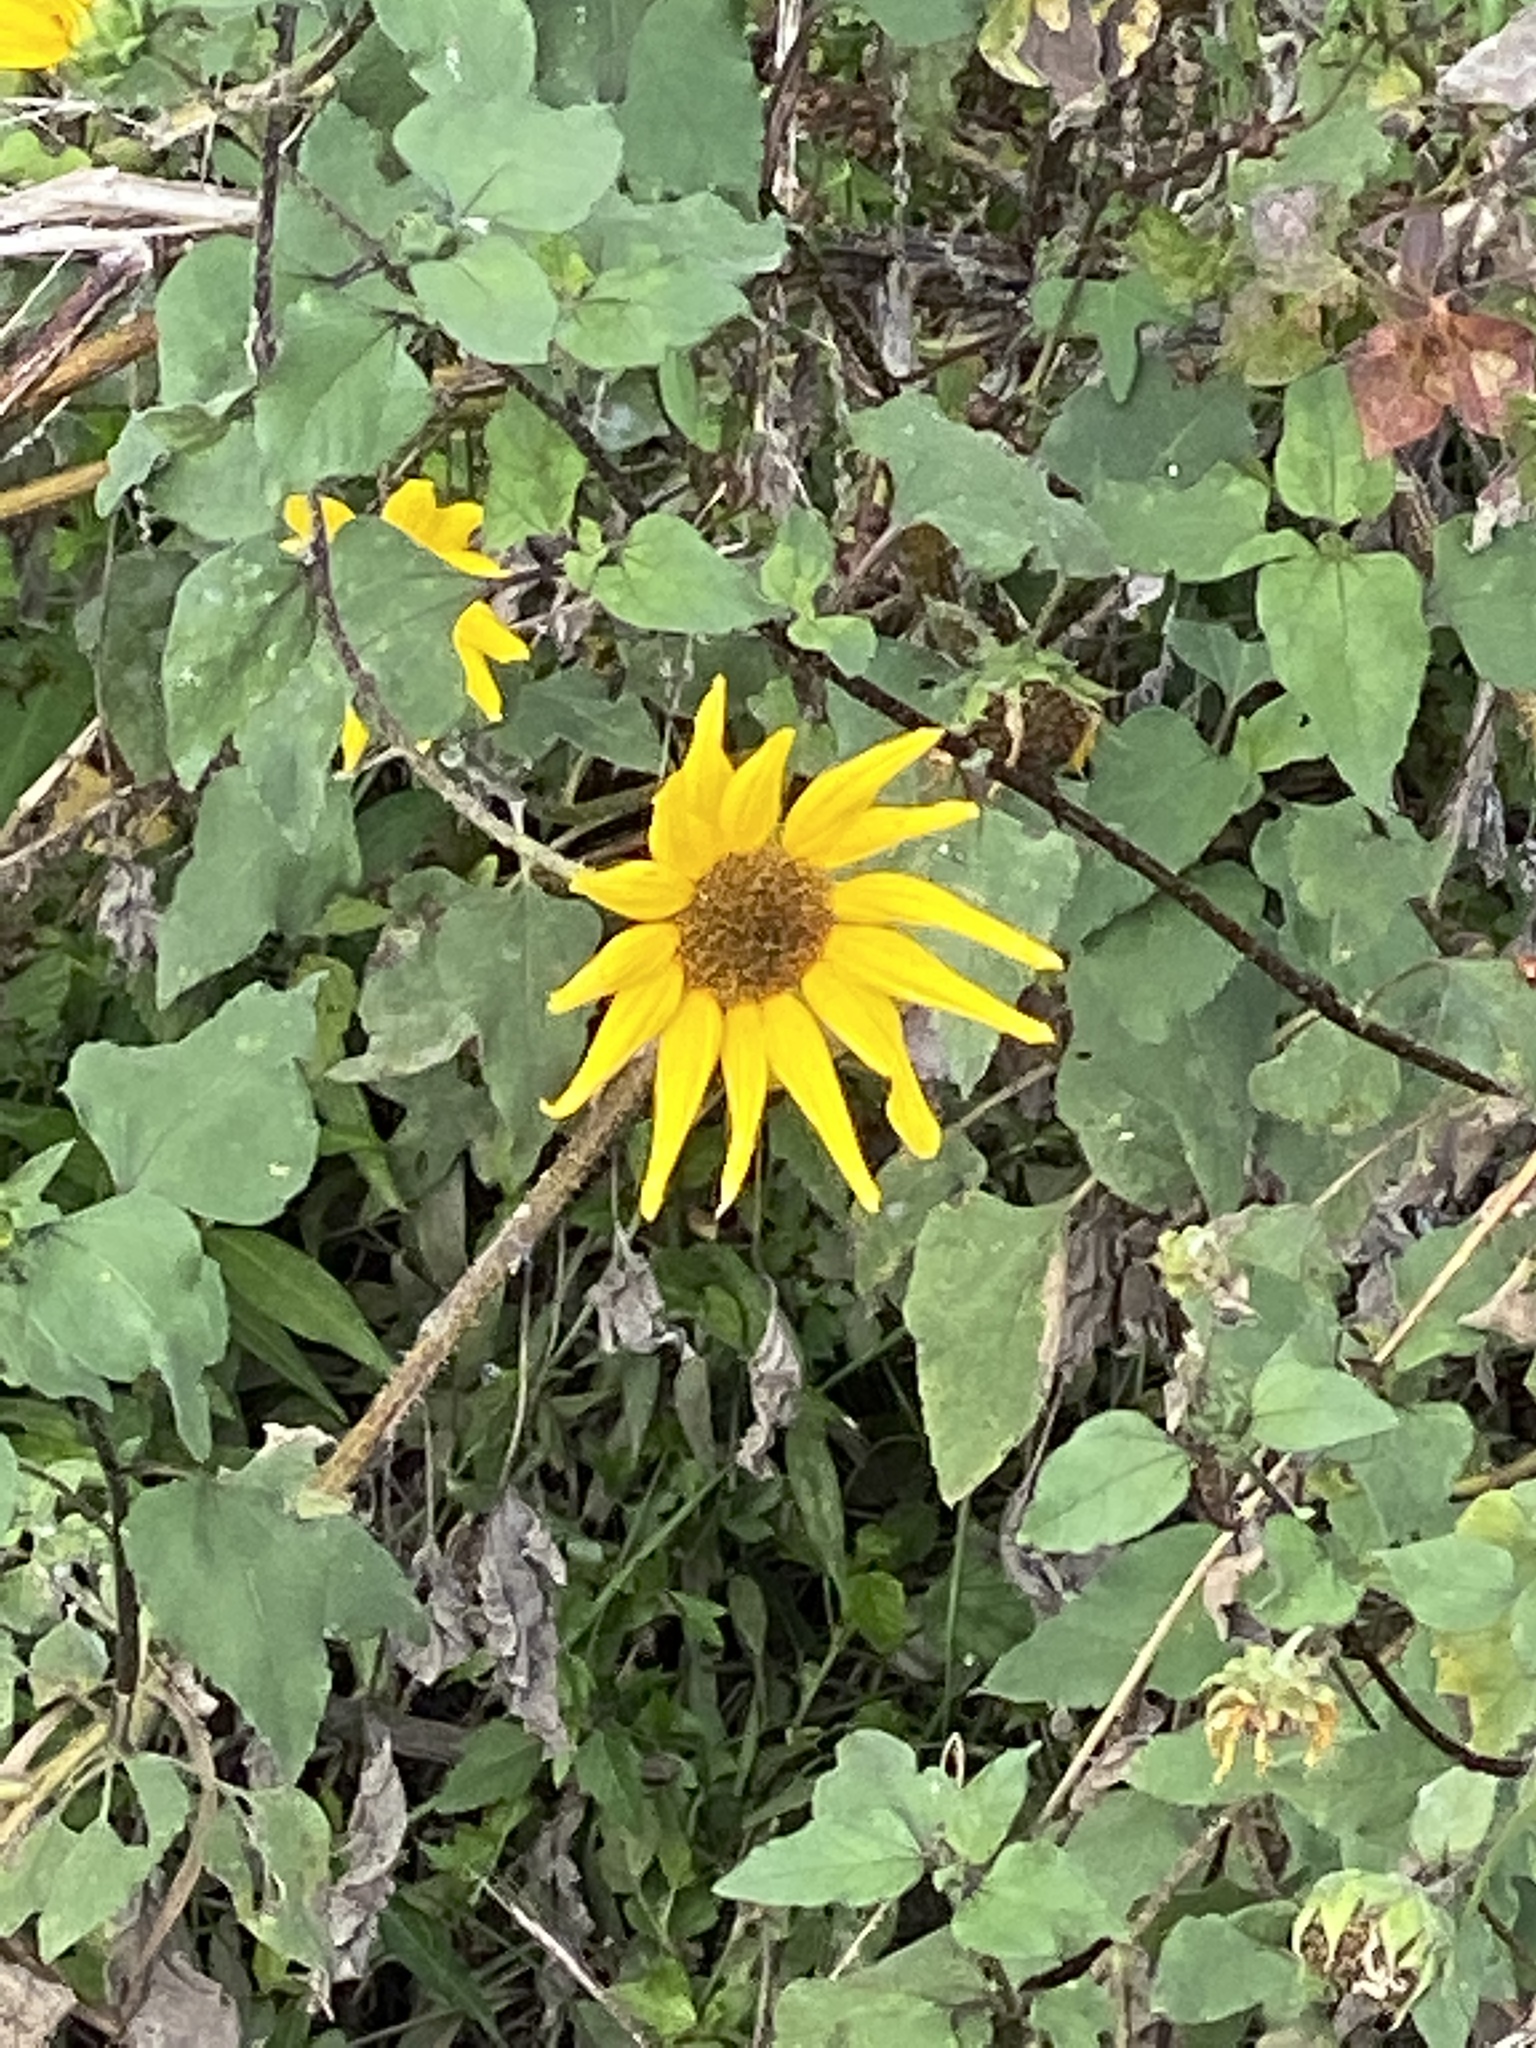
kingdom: Plantae
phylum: Tracheophyta
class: Magnoliopsida
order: Asterales
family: Asteraceae
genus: Helianthus
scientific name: Helianthus annuus
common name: Sunflower
